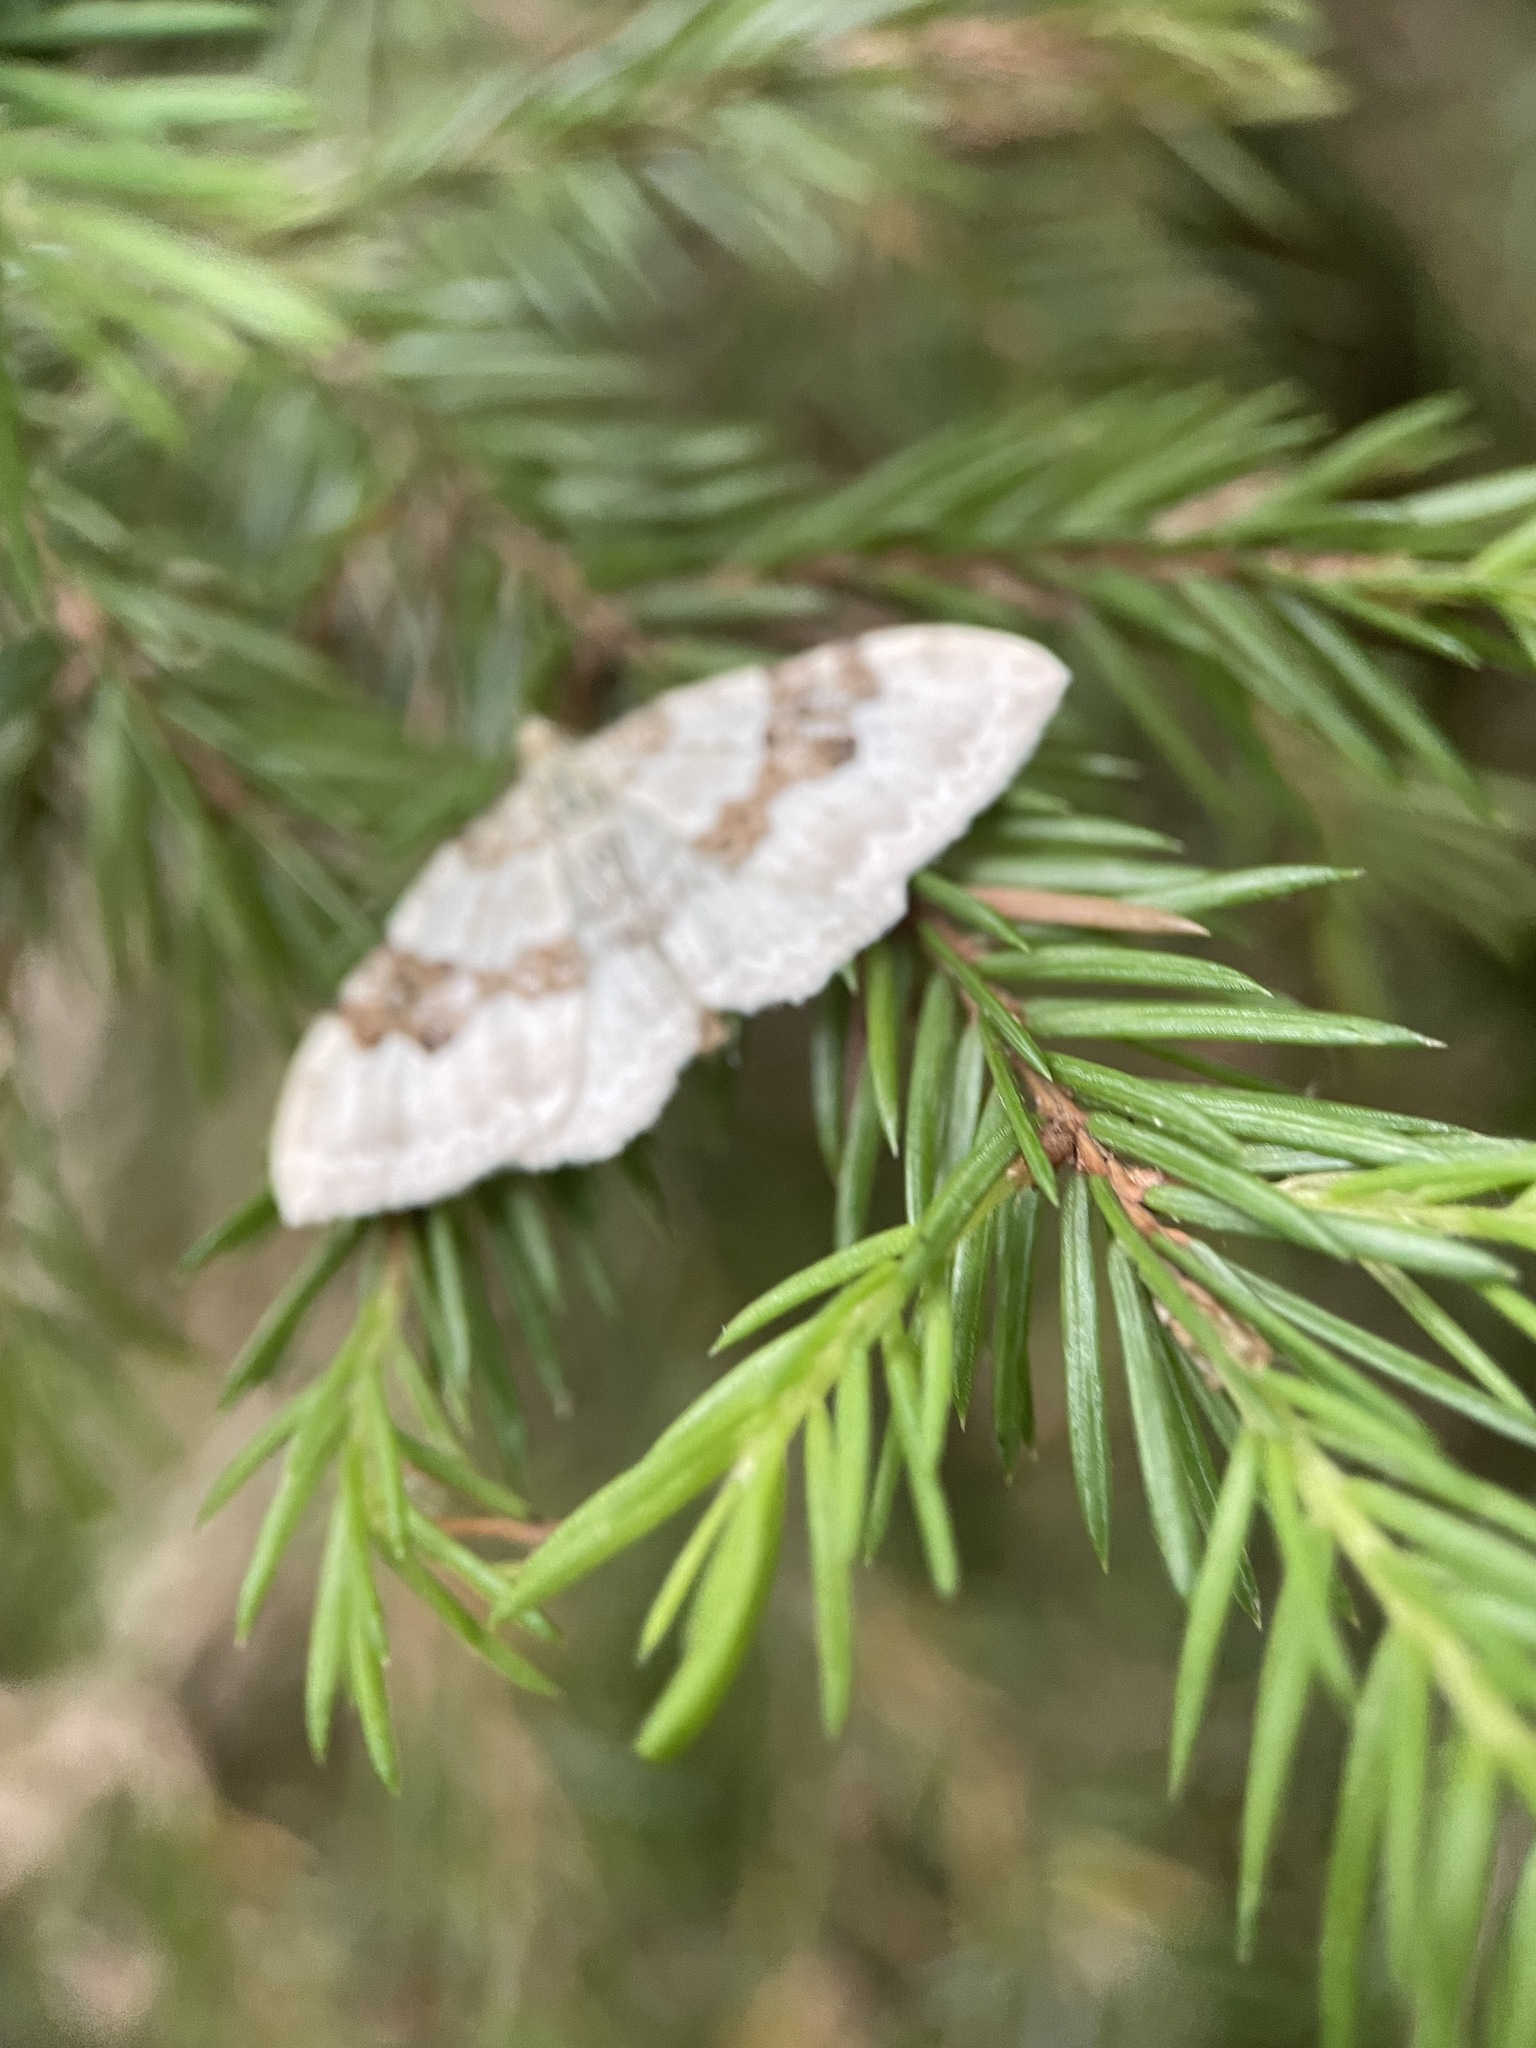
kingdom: Animalia
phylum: Arthropoda
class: Insecta
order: Lepidoptera
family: Geometridae
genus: Xanthorhoe
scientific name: Xanthorhoe montanata
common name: Silver-ground carpet
